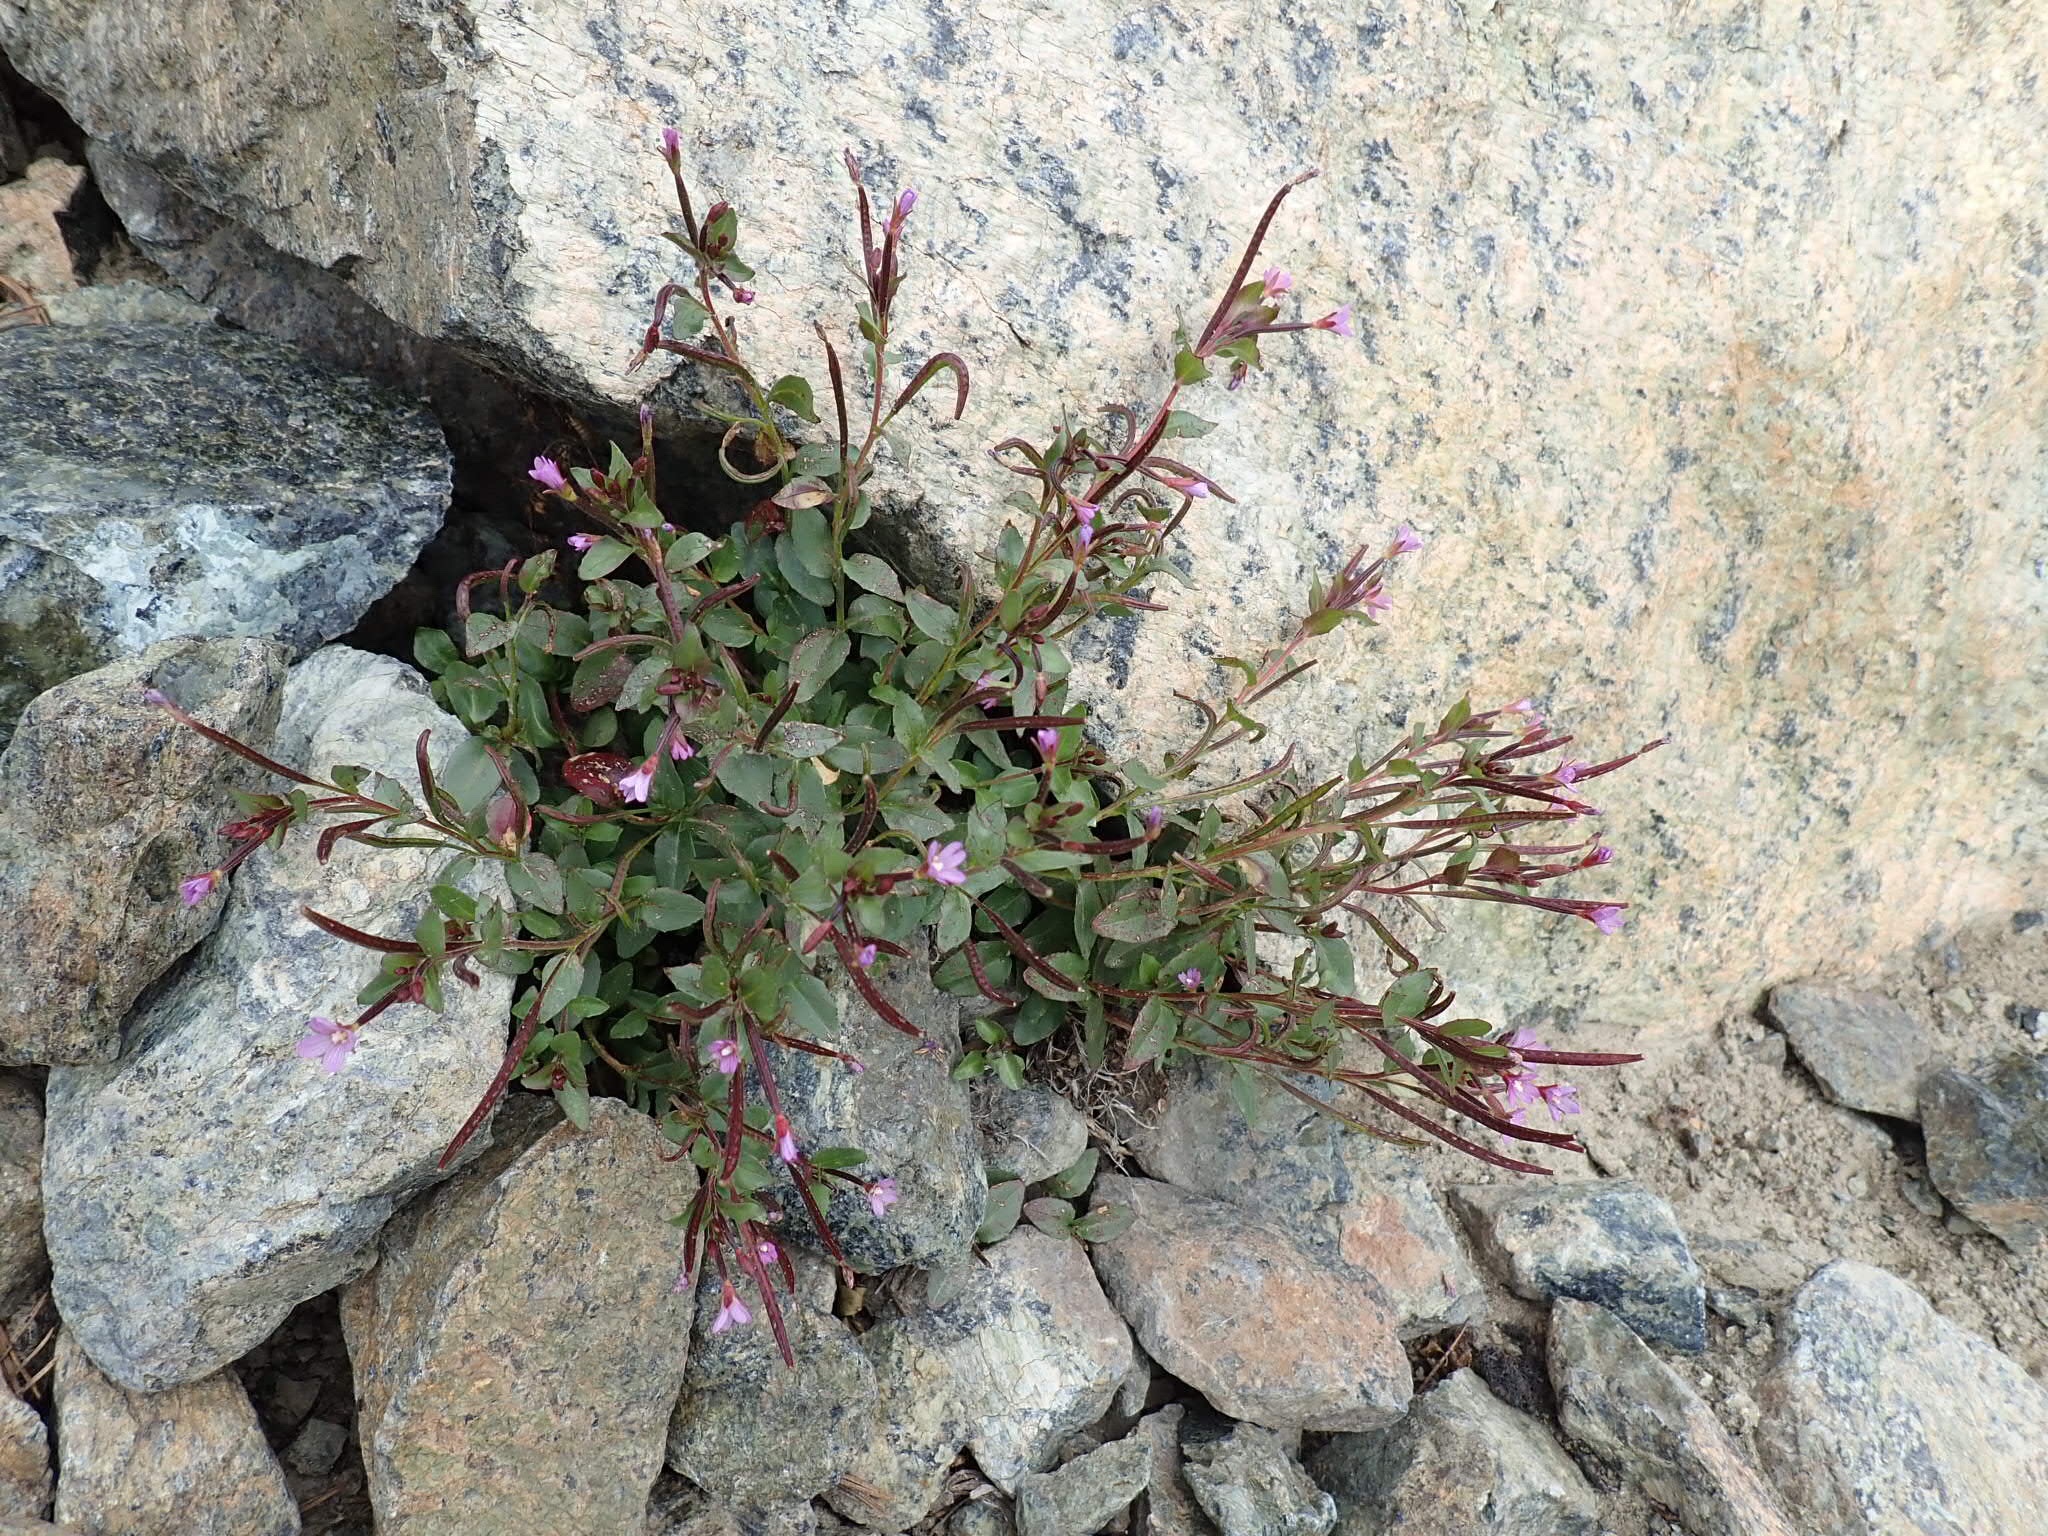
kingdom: Plantae
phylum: Tracheophyta
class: Magnoliopsida
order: Myrtales
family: Onagraceae
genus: Epilobium
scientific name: Epilobium minutum
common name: Chaparral willowherb
